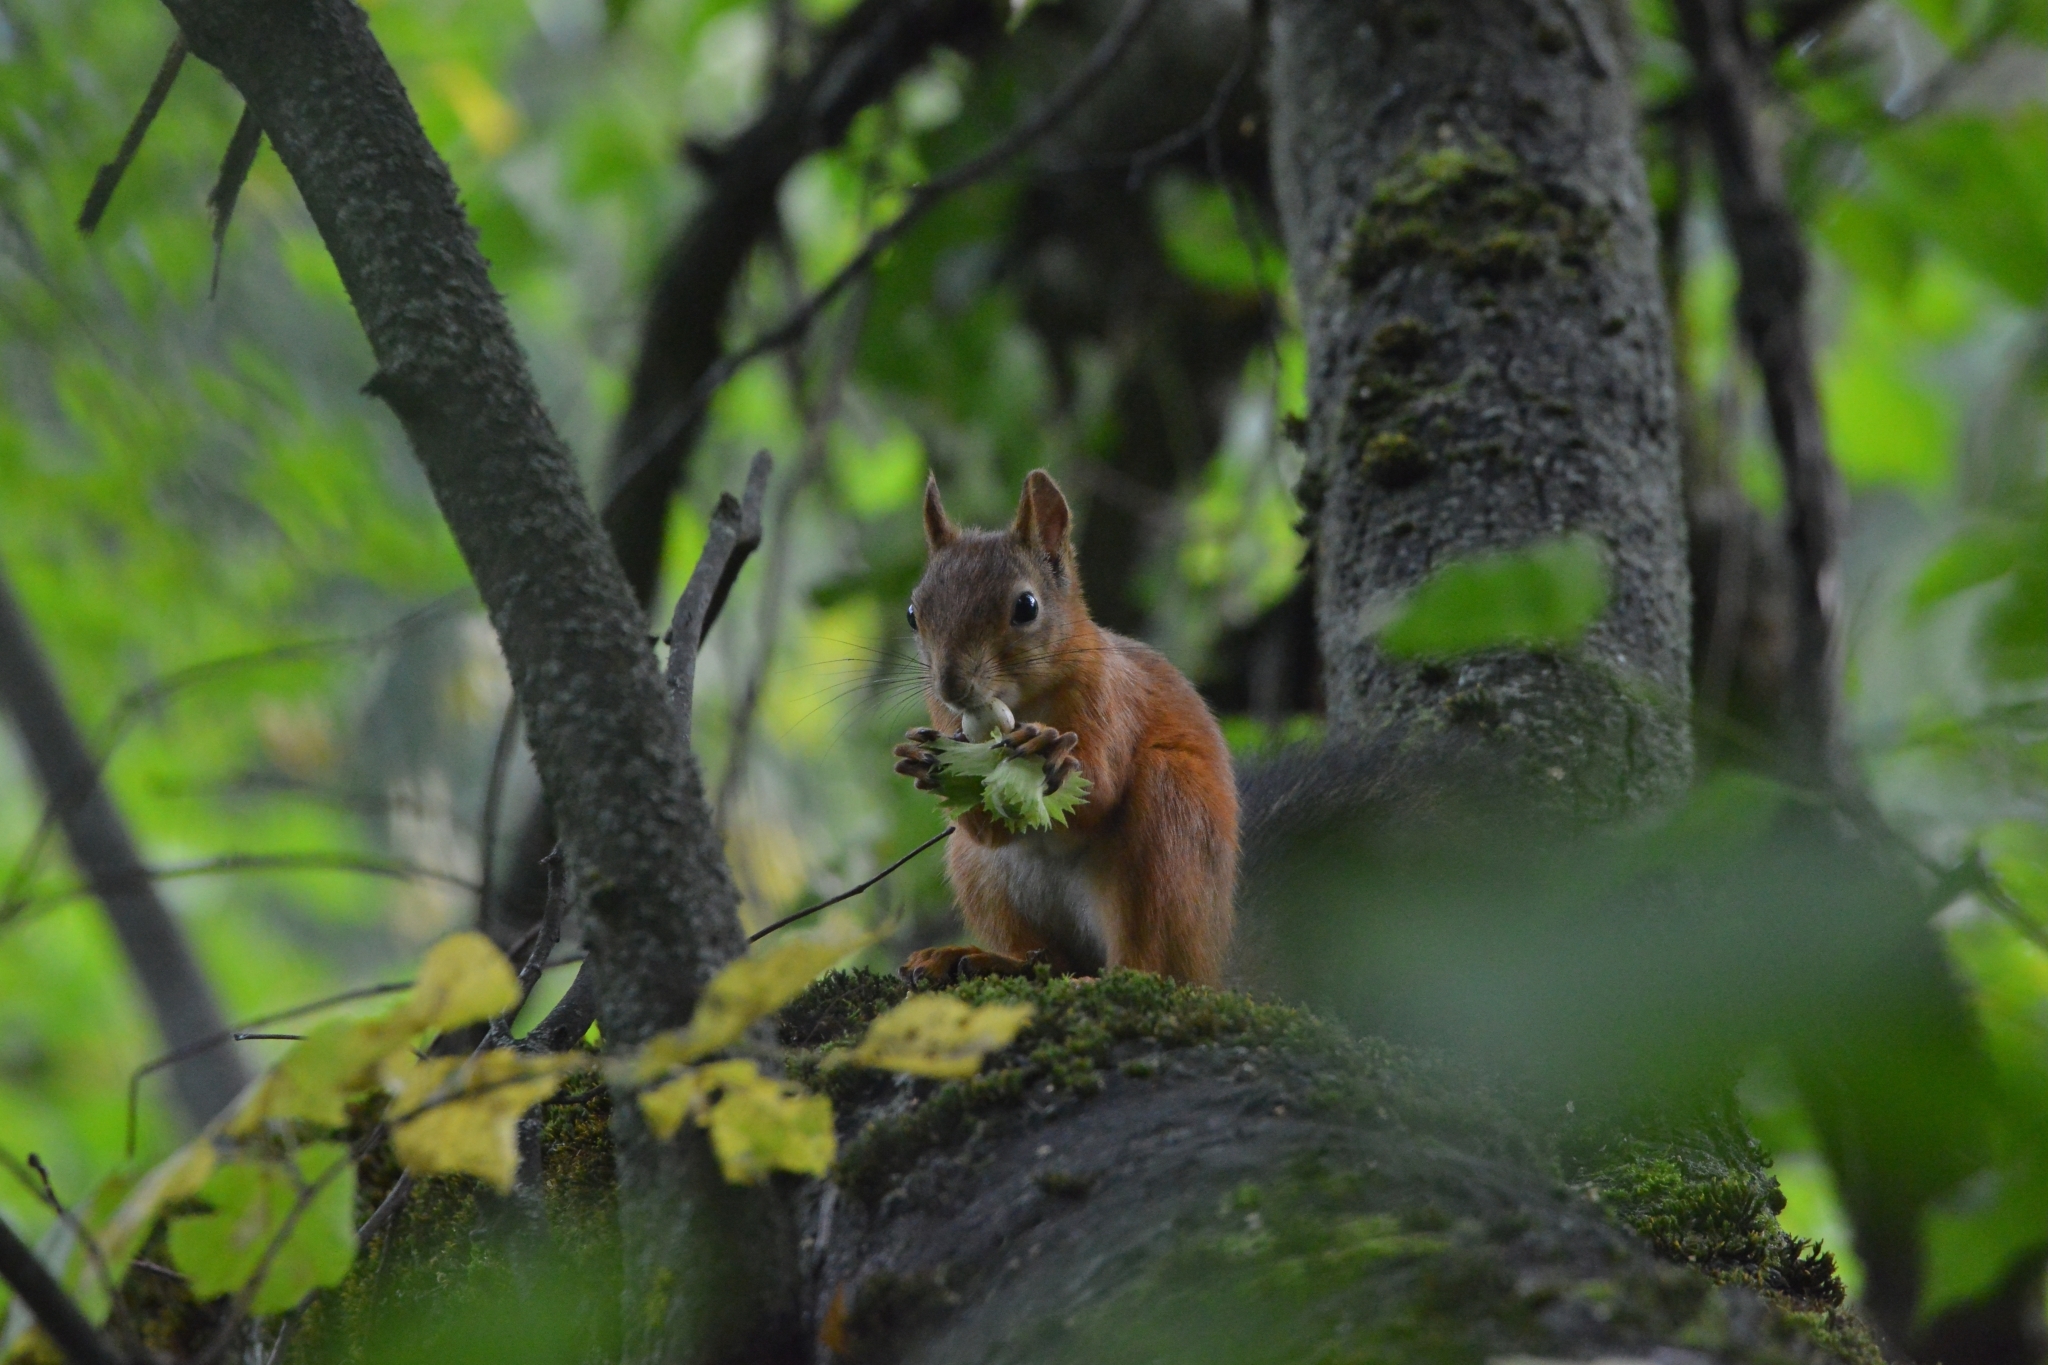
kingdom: Animalia
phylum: Chordata
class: Mammalia
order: Rodentia
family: Sciuridae
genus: Sciurus
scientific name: Sciurus vulgaris
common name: Eurasian red squirrel
